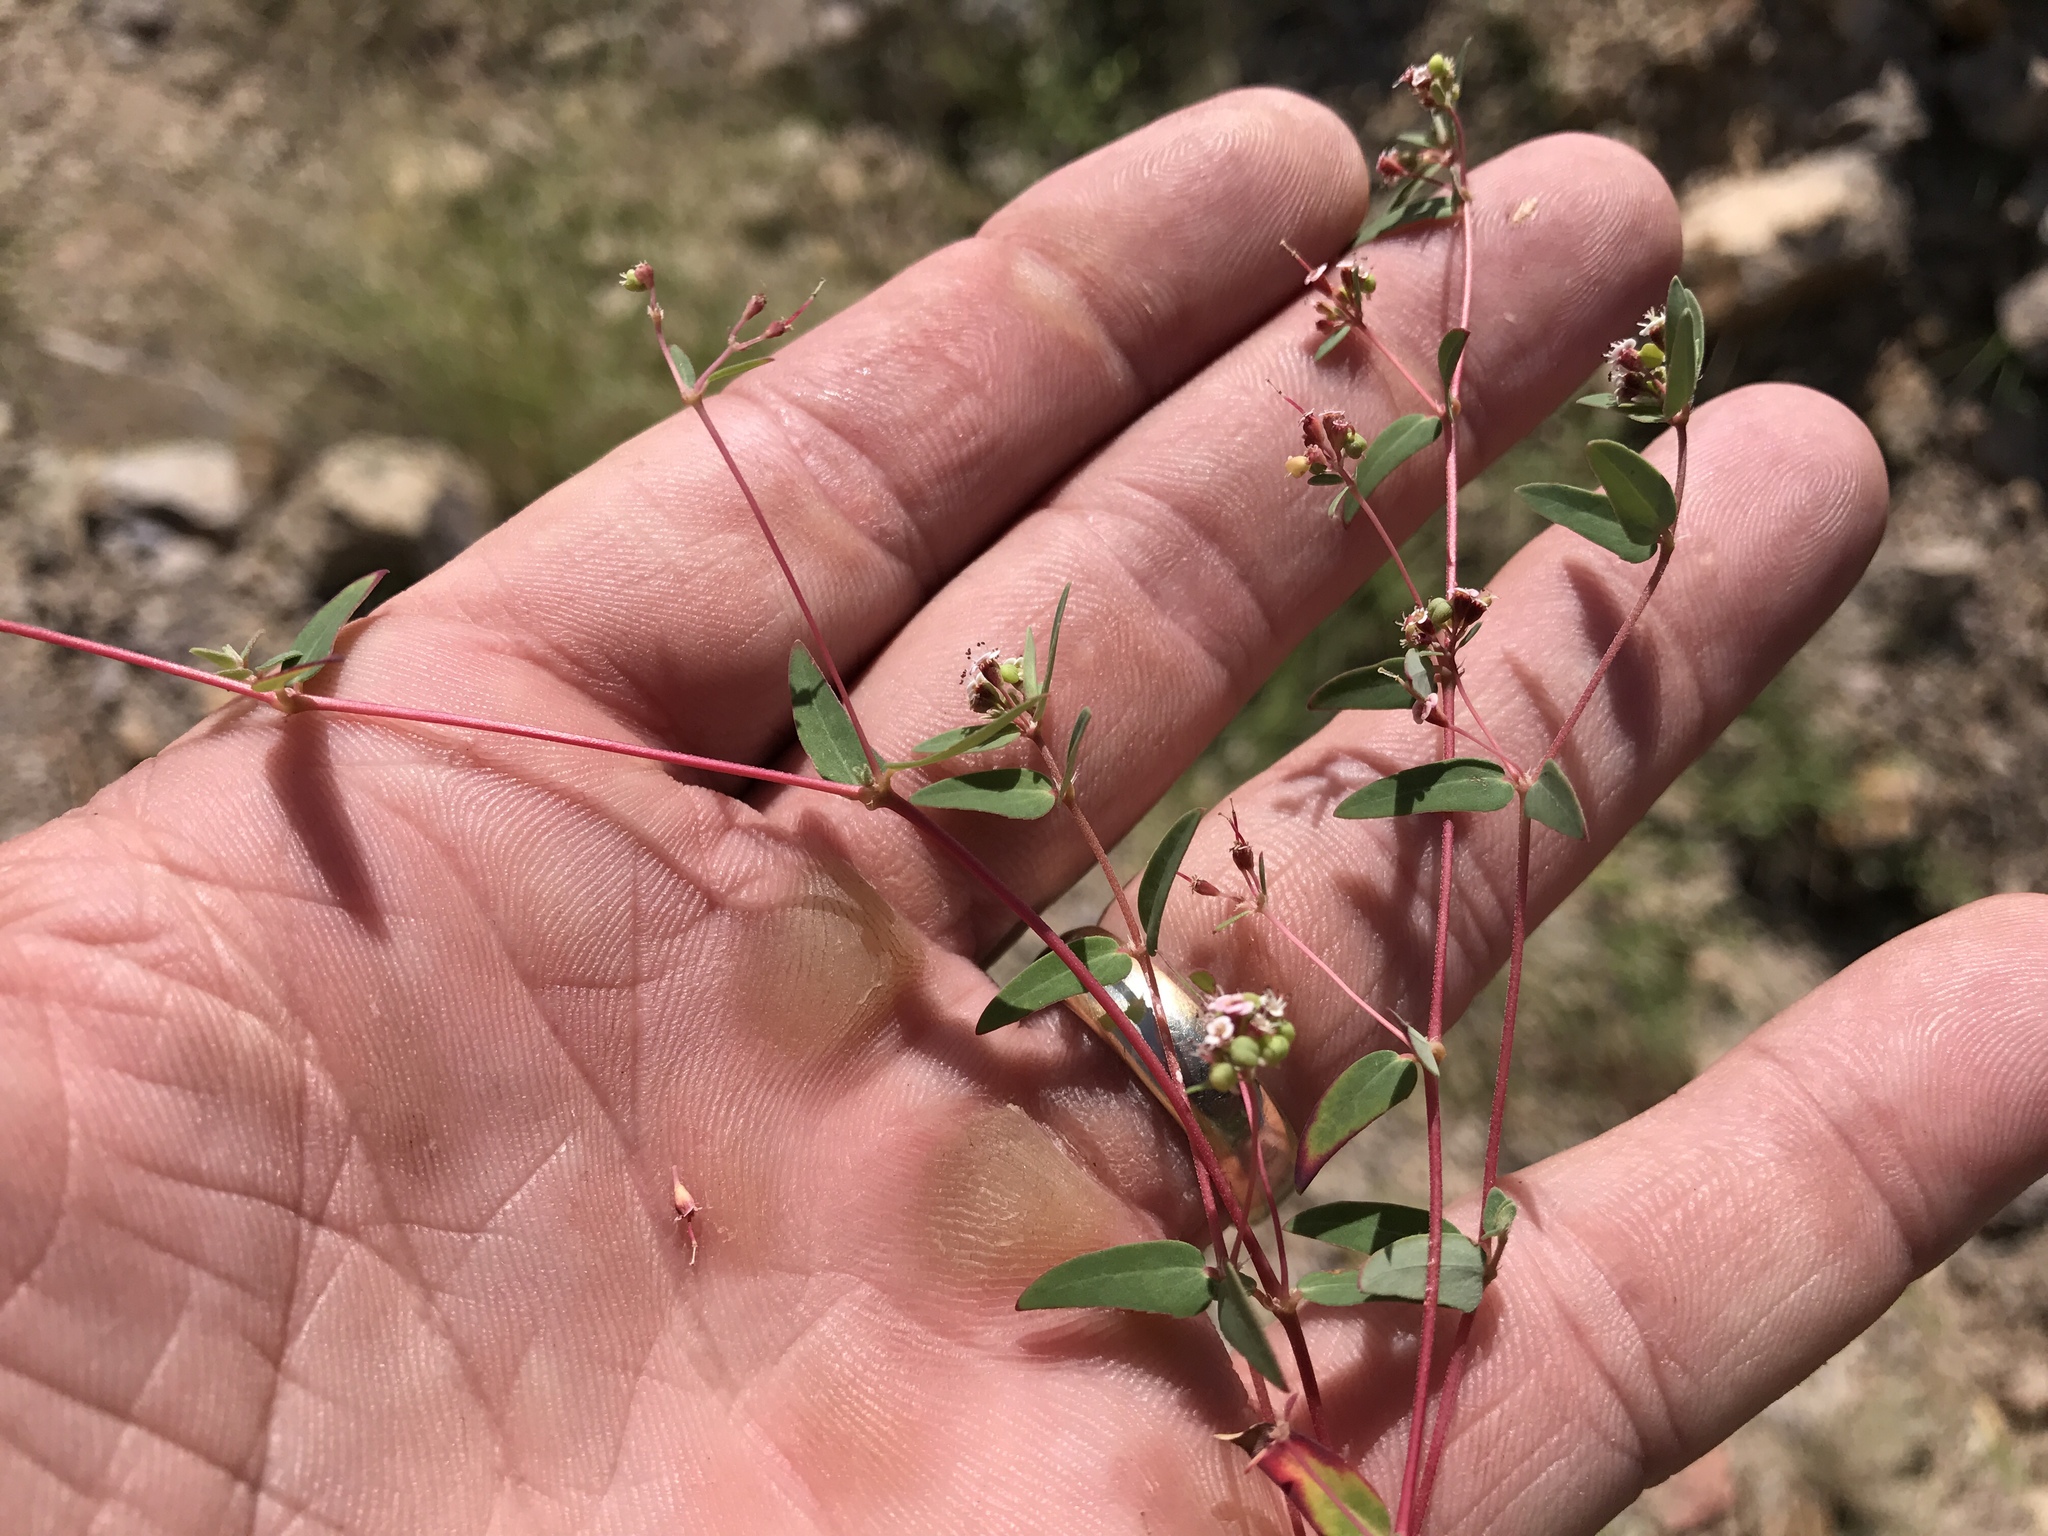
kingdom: Plantae
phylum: Tracheophyta
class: Magnoliopsida
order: Malpighiales
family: Euphorbiaceae
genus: Euphorbia
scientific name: Euphorbia capitellata
